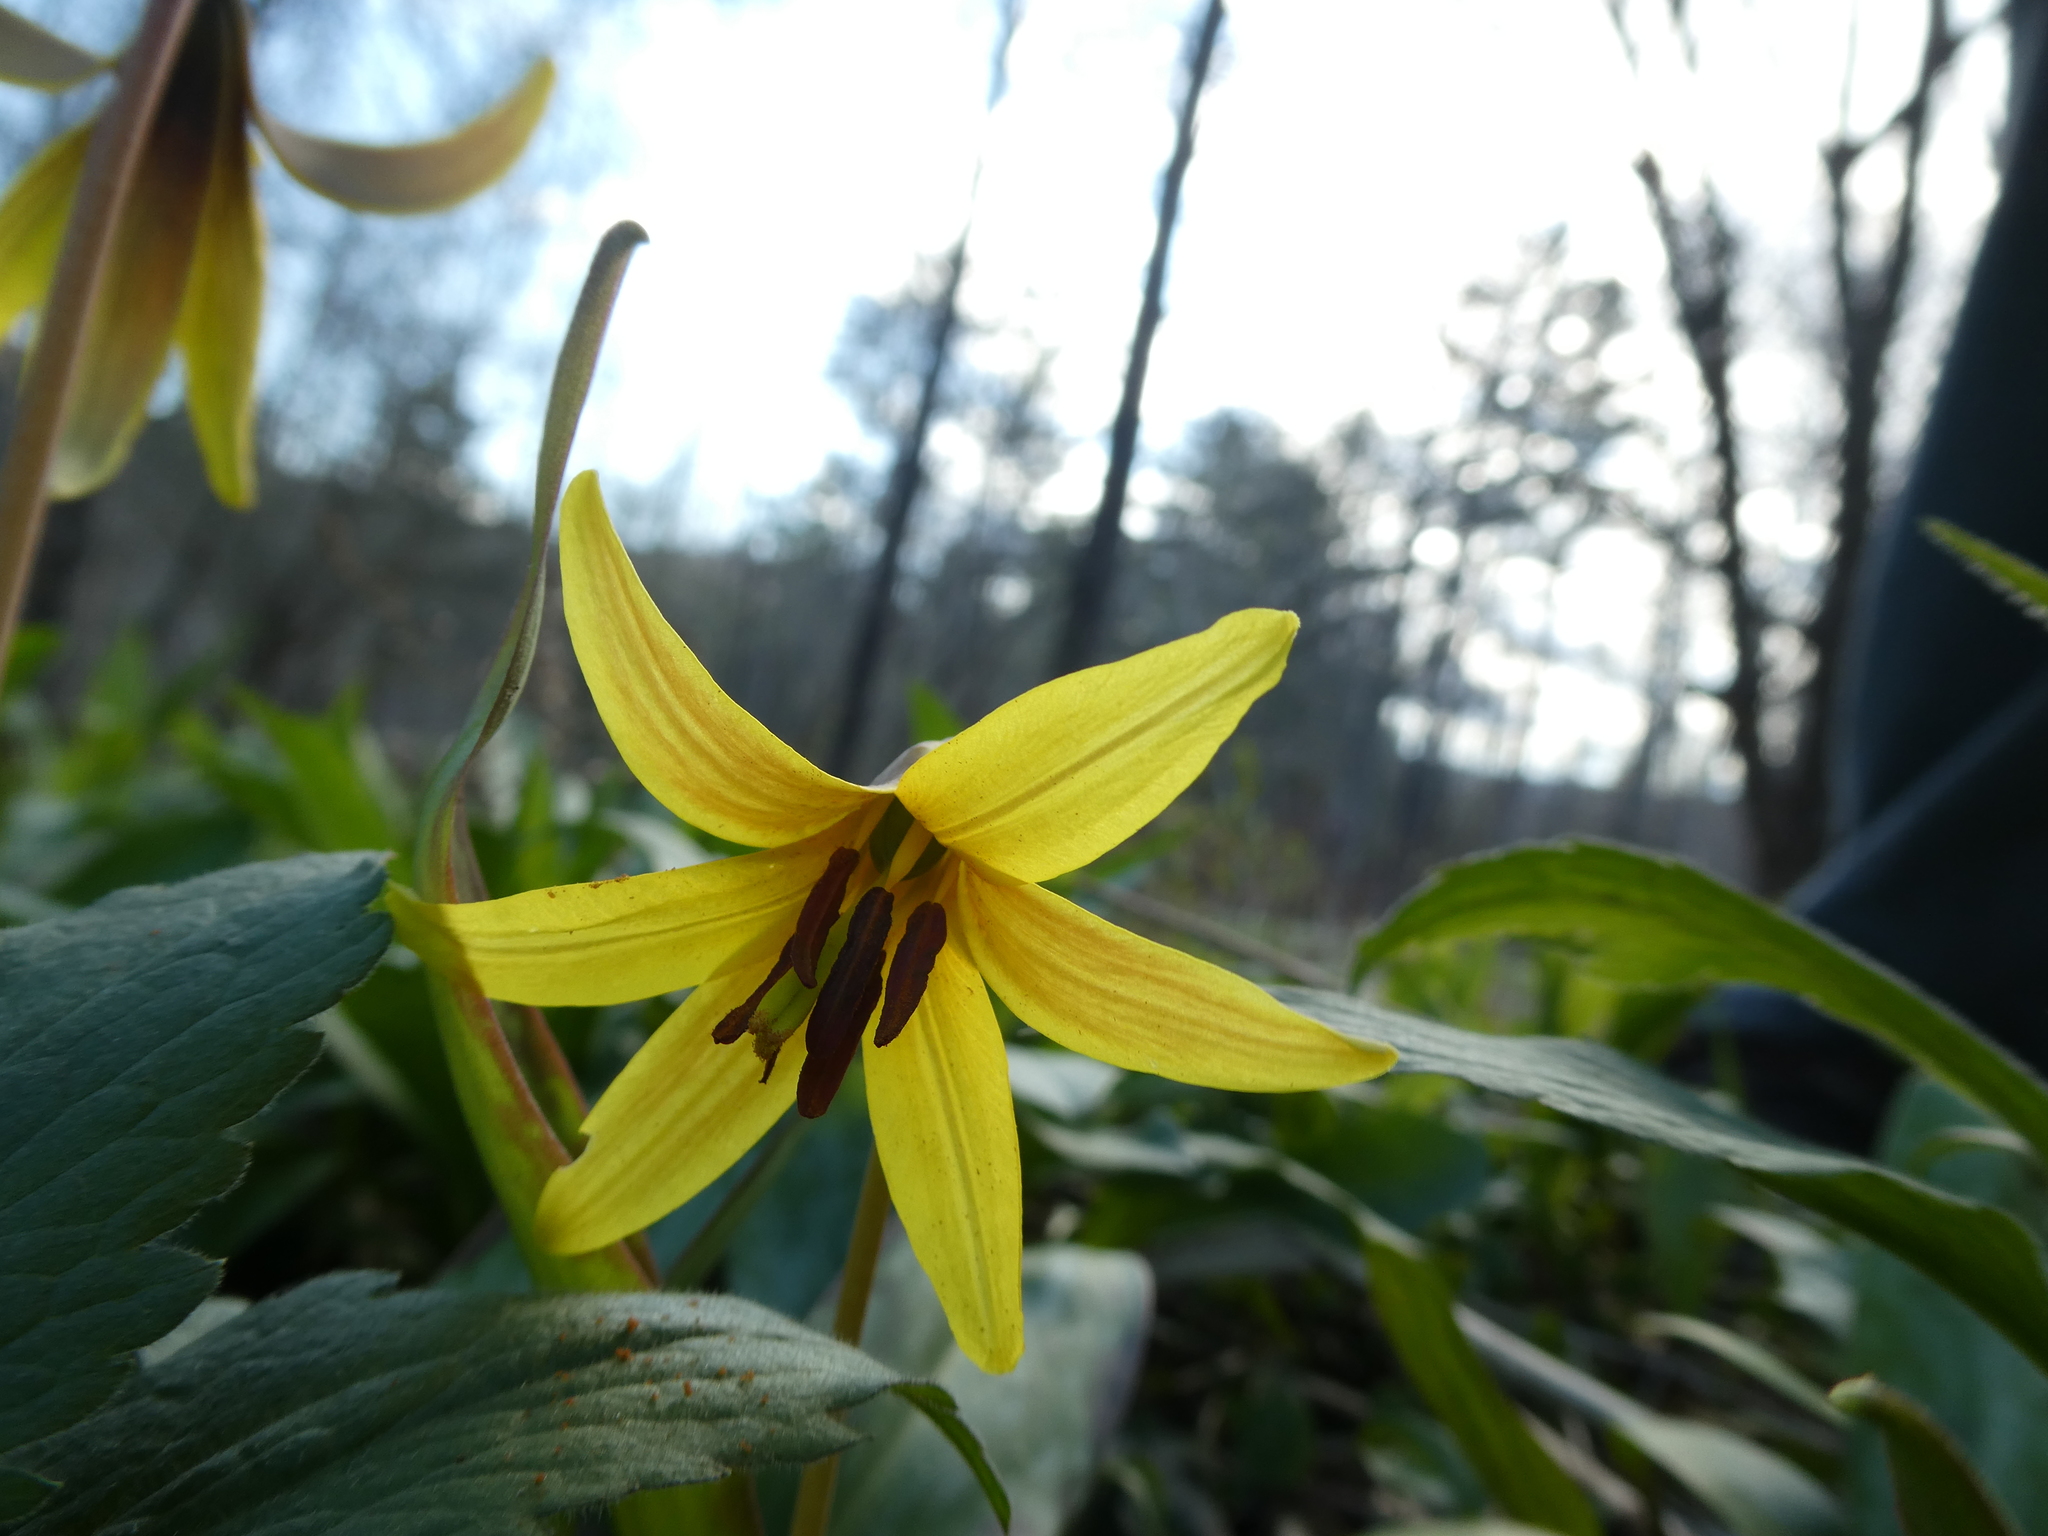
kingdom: Plantae
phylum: Tracheophyta
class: Liliopsida
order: Liliales
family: Liliaceae
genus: Erythronium
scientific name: Erythronium americanum
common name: Yellow adder's-tongue
